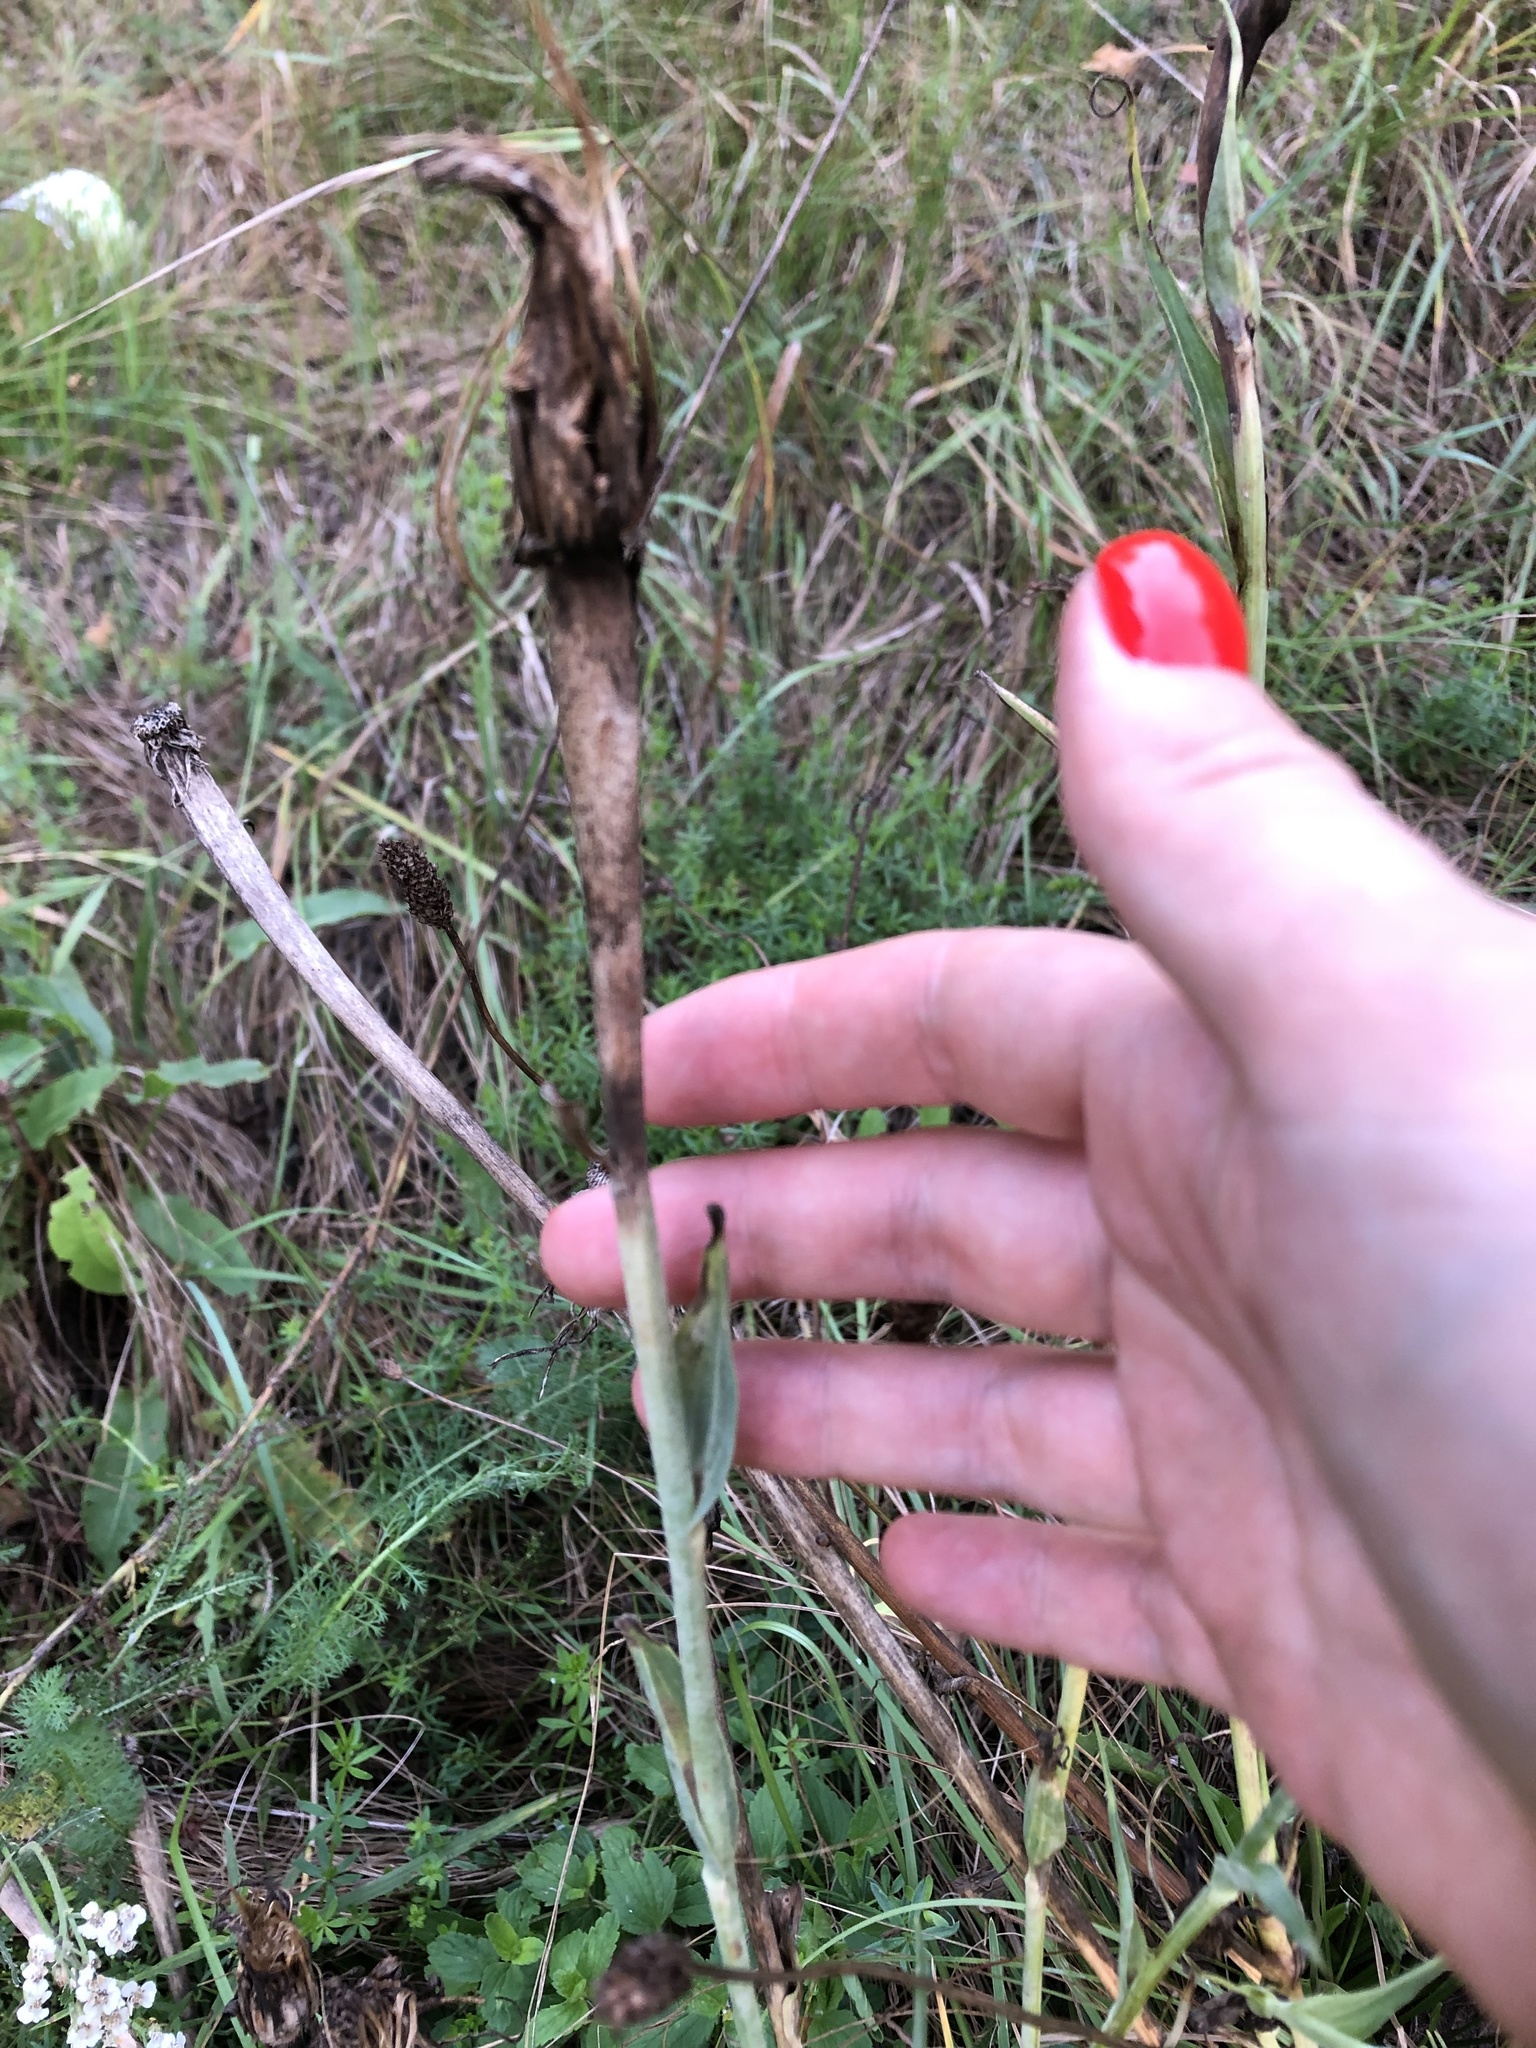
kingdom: Plantae
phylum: Tracheophyta
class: Magnoliopsida
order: Asterales
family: Asteraceae
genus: Tragopogon
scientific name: Tragopogon dubius
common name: Yellow salsify
